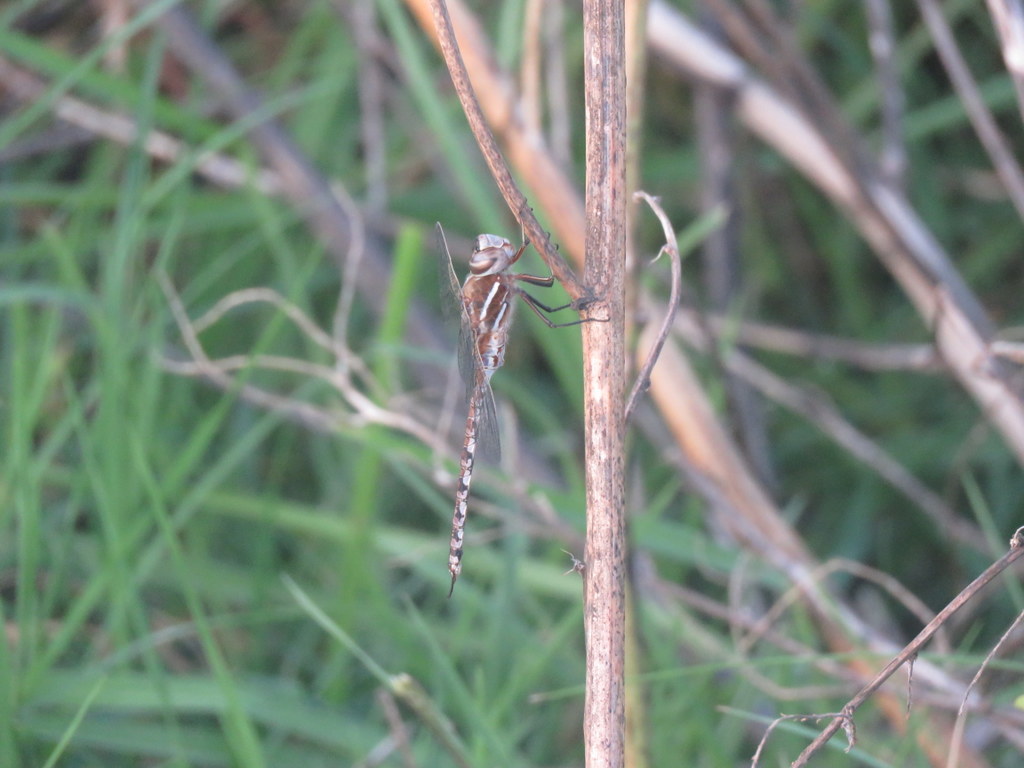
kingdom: Animalia
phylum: Arthropoda
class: Insecta
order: Odonata
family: Aeshnidae
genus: Rhionaeschna
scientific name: Rhionaeschna bonariensis
